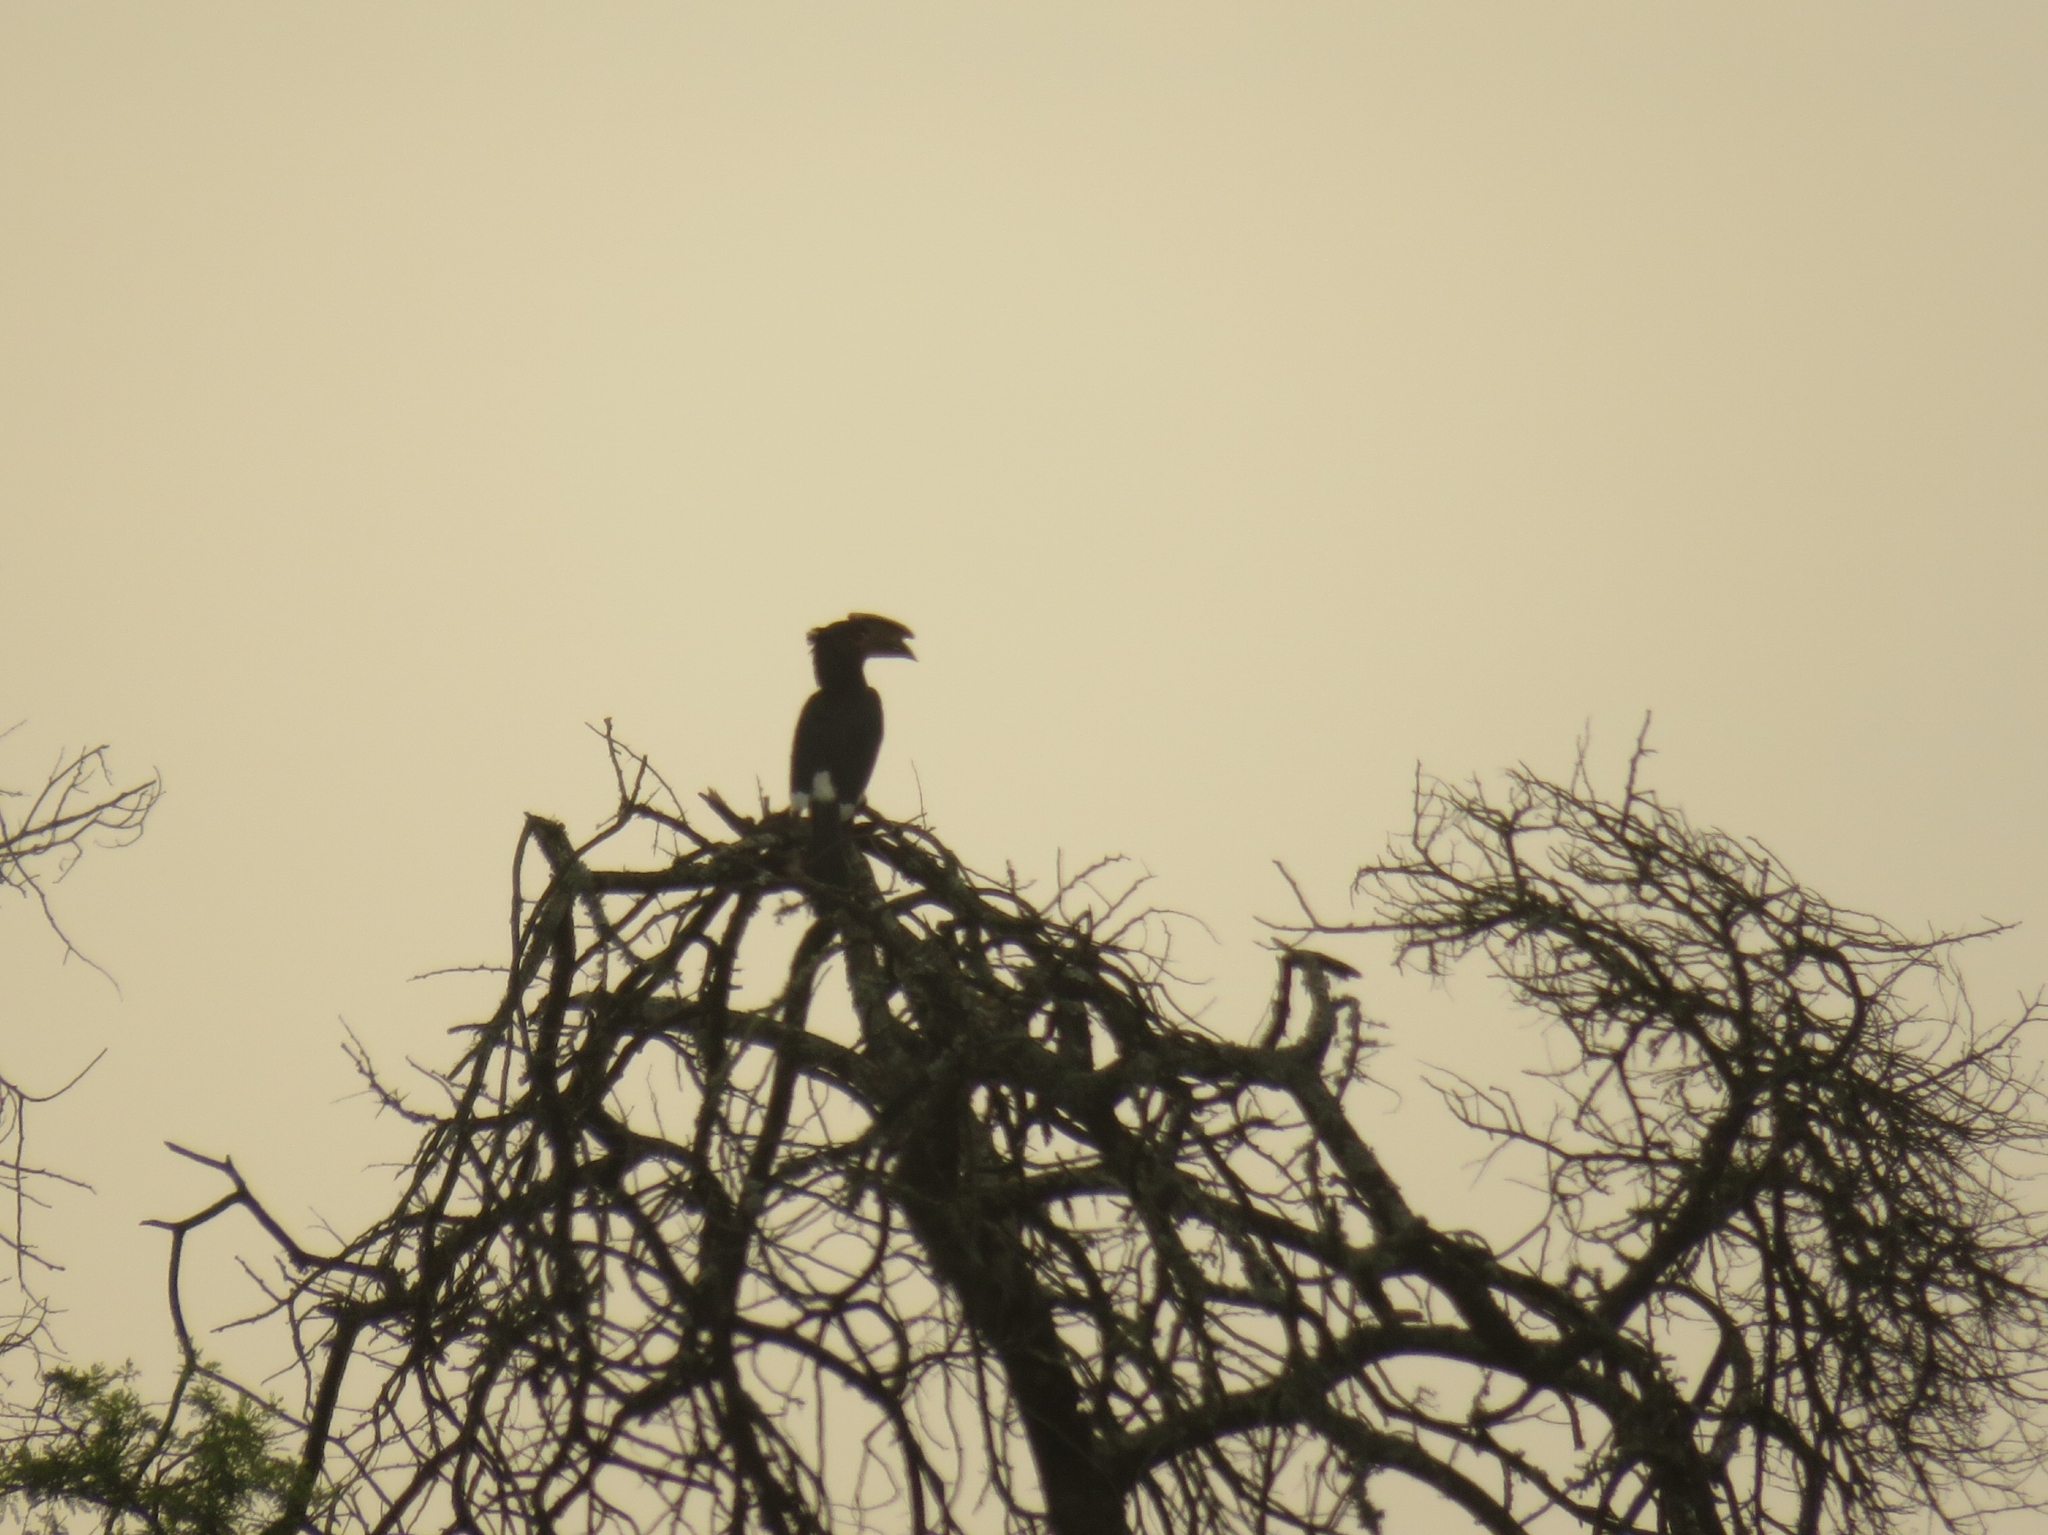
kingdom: Animalia
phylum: Chordata
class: Aves
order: Bucerotiformes
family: Bucerotidae
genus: Bycanistes
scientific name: Bycanistes bucinator
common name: Trumpeter hornbill
